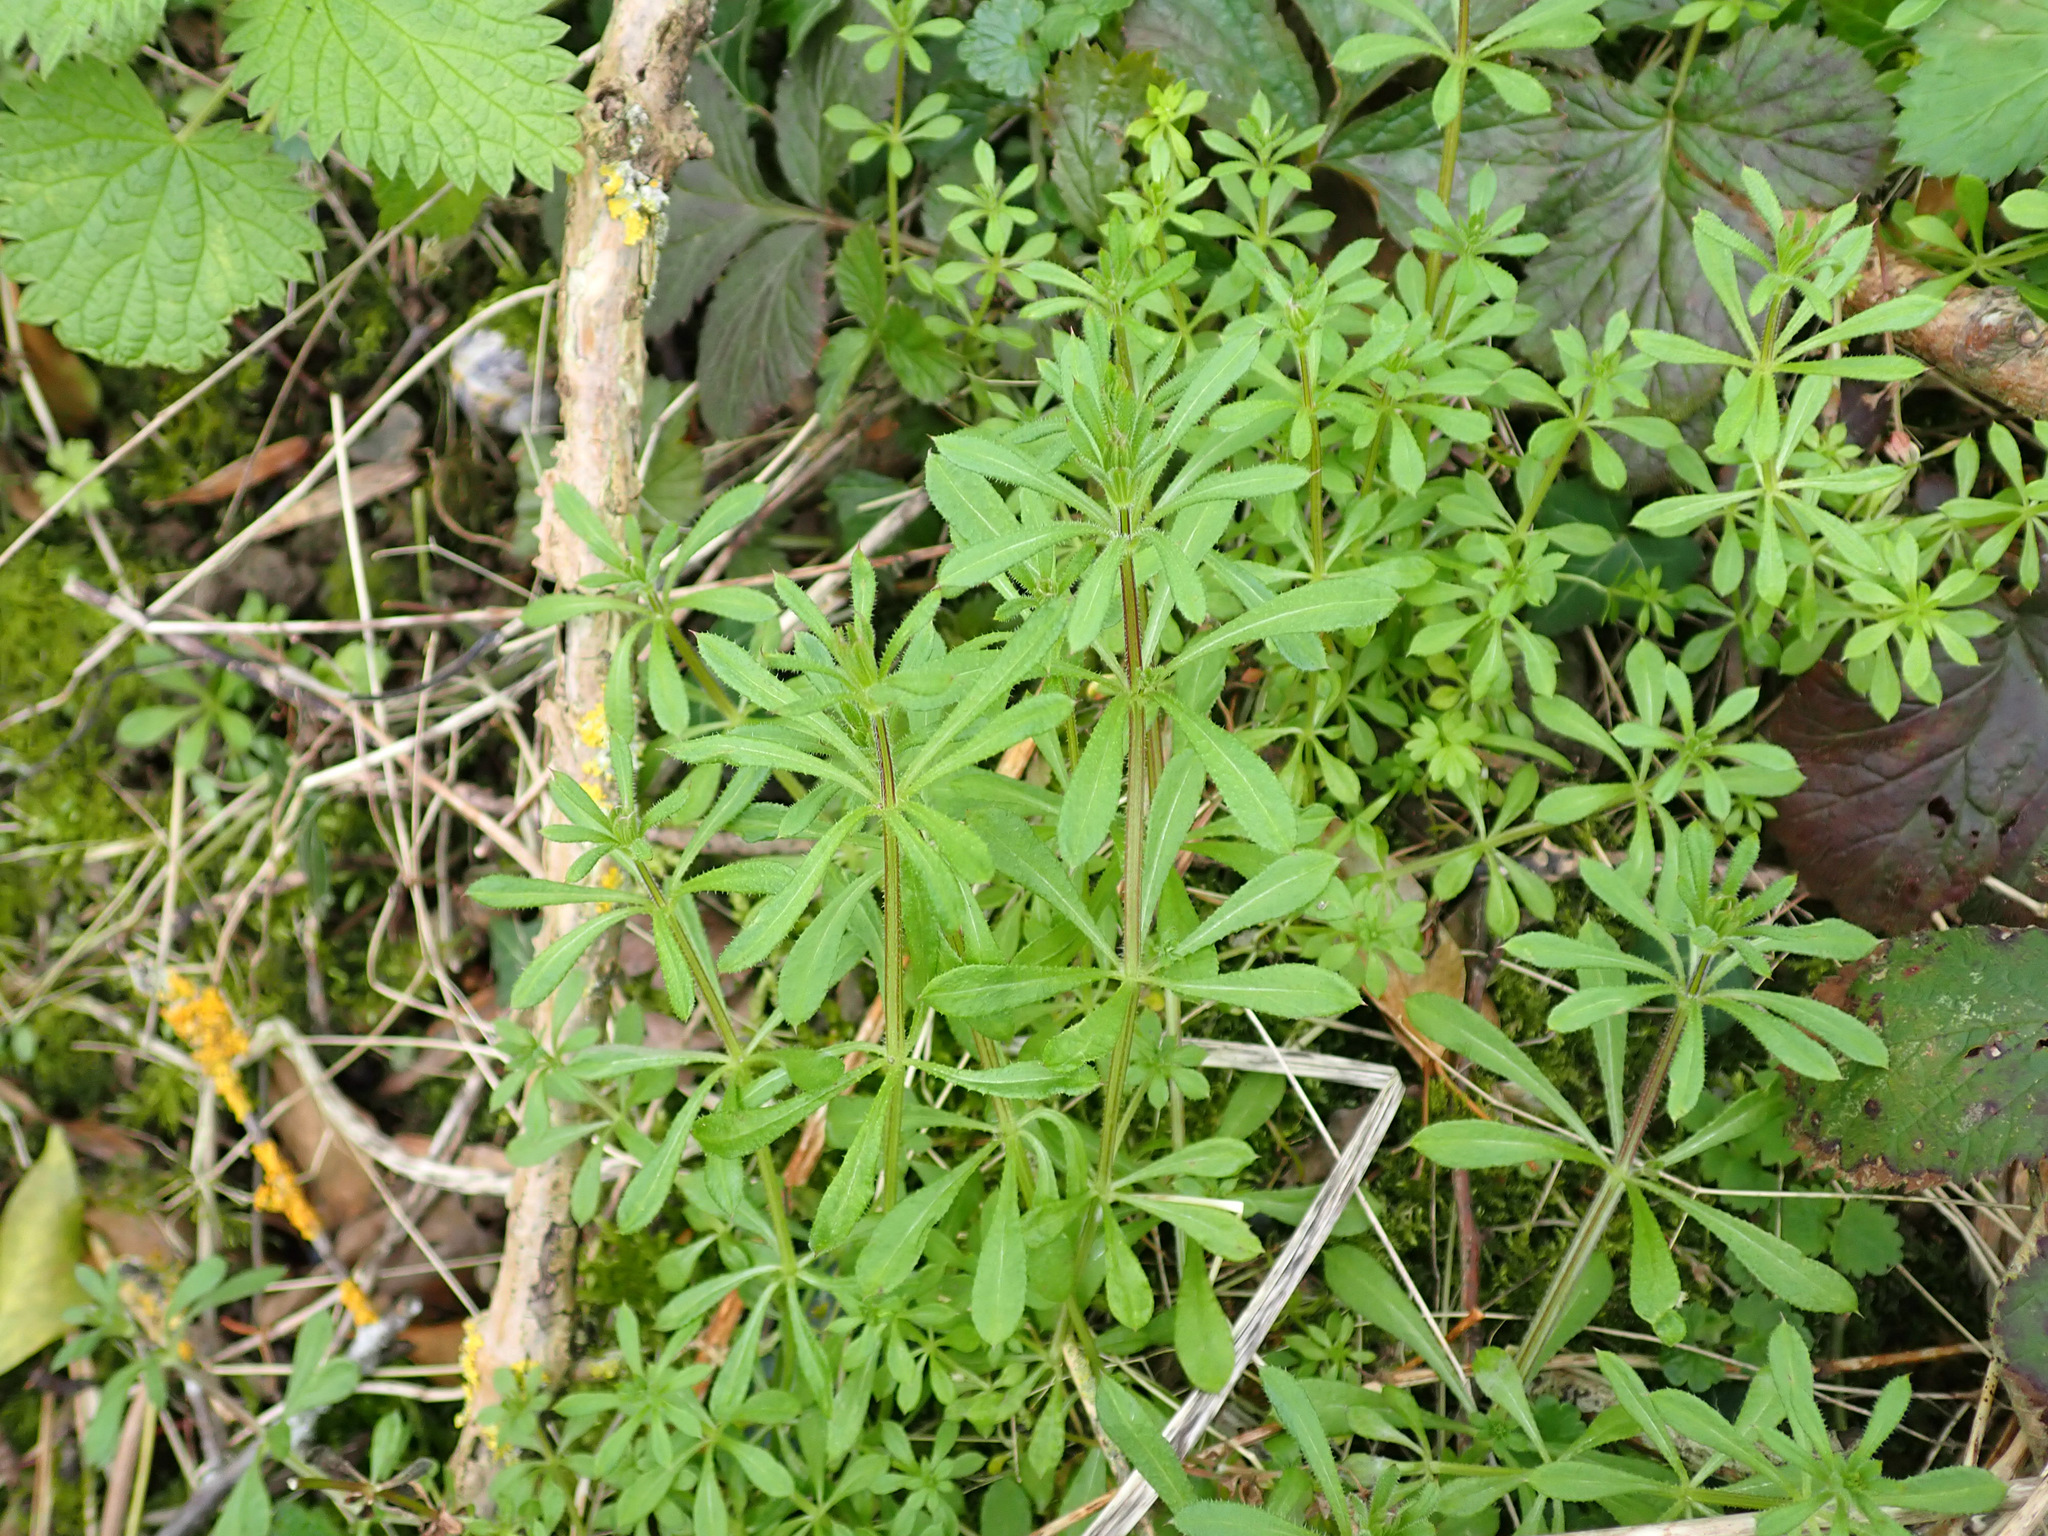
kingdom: Plantae
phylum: Tracheophyta
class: Magnoliopsida
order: Gentianales
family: Rubiaceae
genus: Galium
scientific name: Galium aparine
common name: Cleavers
